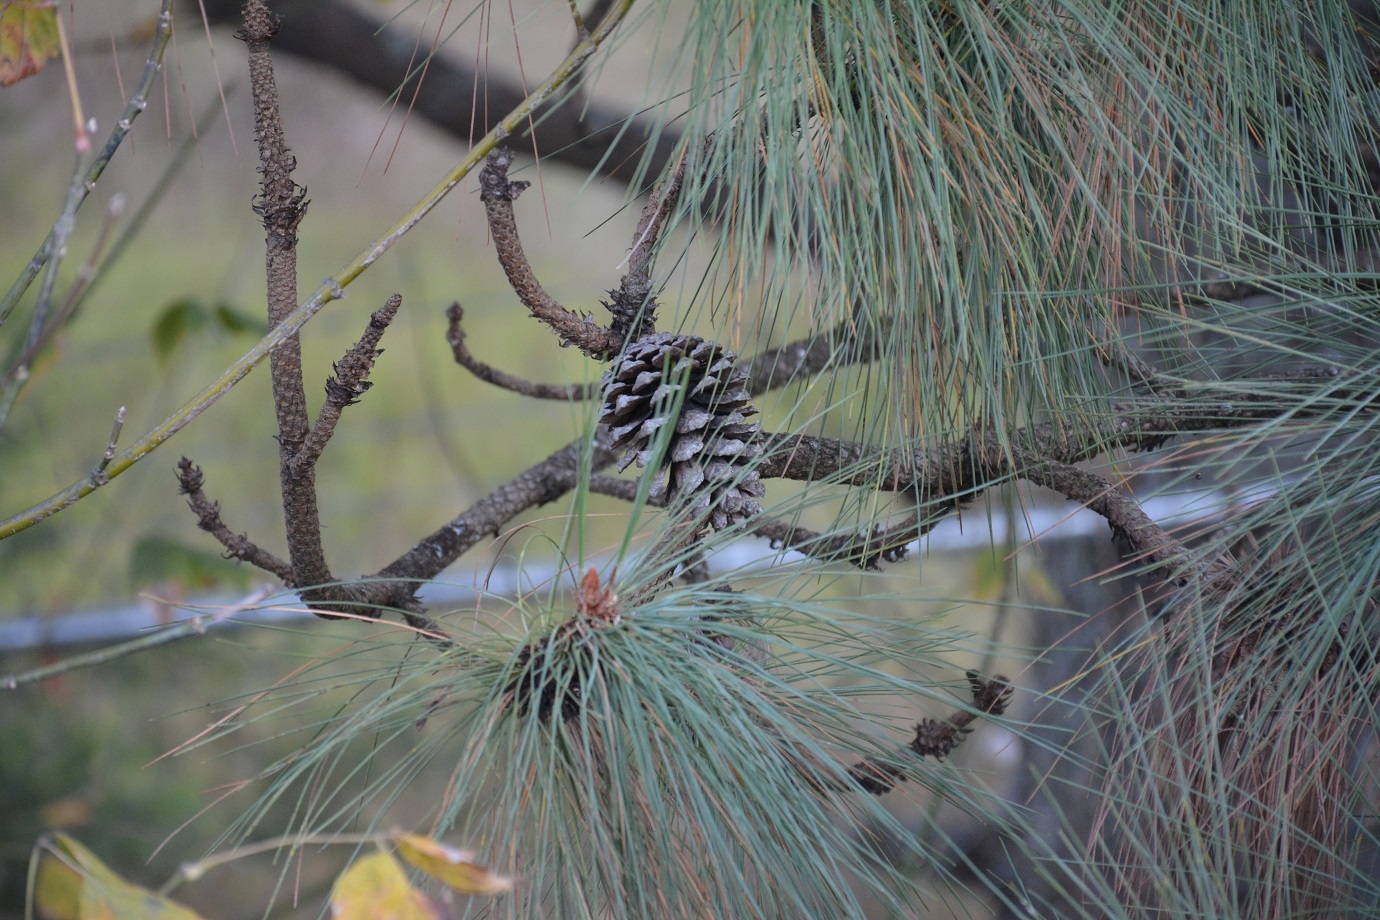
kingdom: Plantae
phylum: Tracheophyta
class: Pinopsida
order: Pinales
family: Pinaceae
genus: Pinus
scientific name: Pinus montezumae
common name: Montezuma pine
